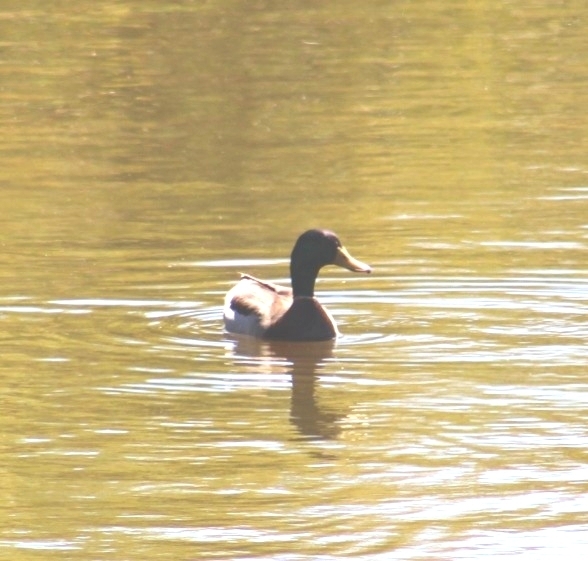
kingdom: Animalia
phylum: Chordata
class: Aves
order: Anseriformes
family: Anatidae
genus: Anas
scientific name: Anas platyrhynchos
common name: Mallard
